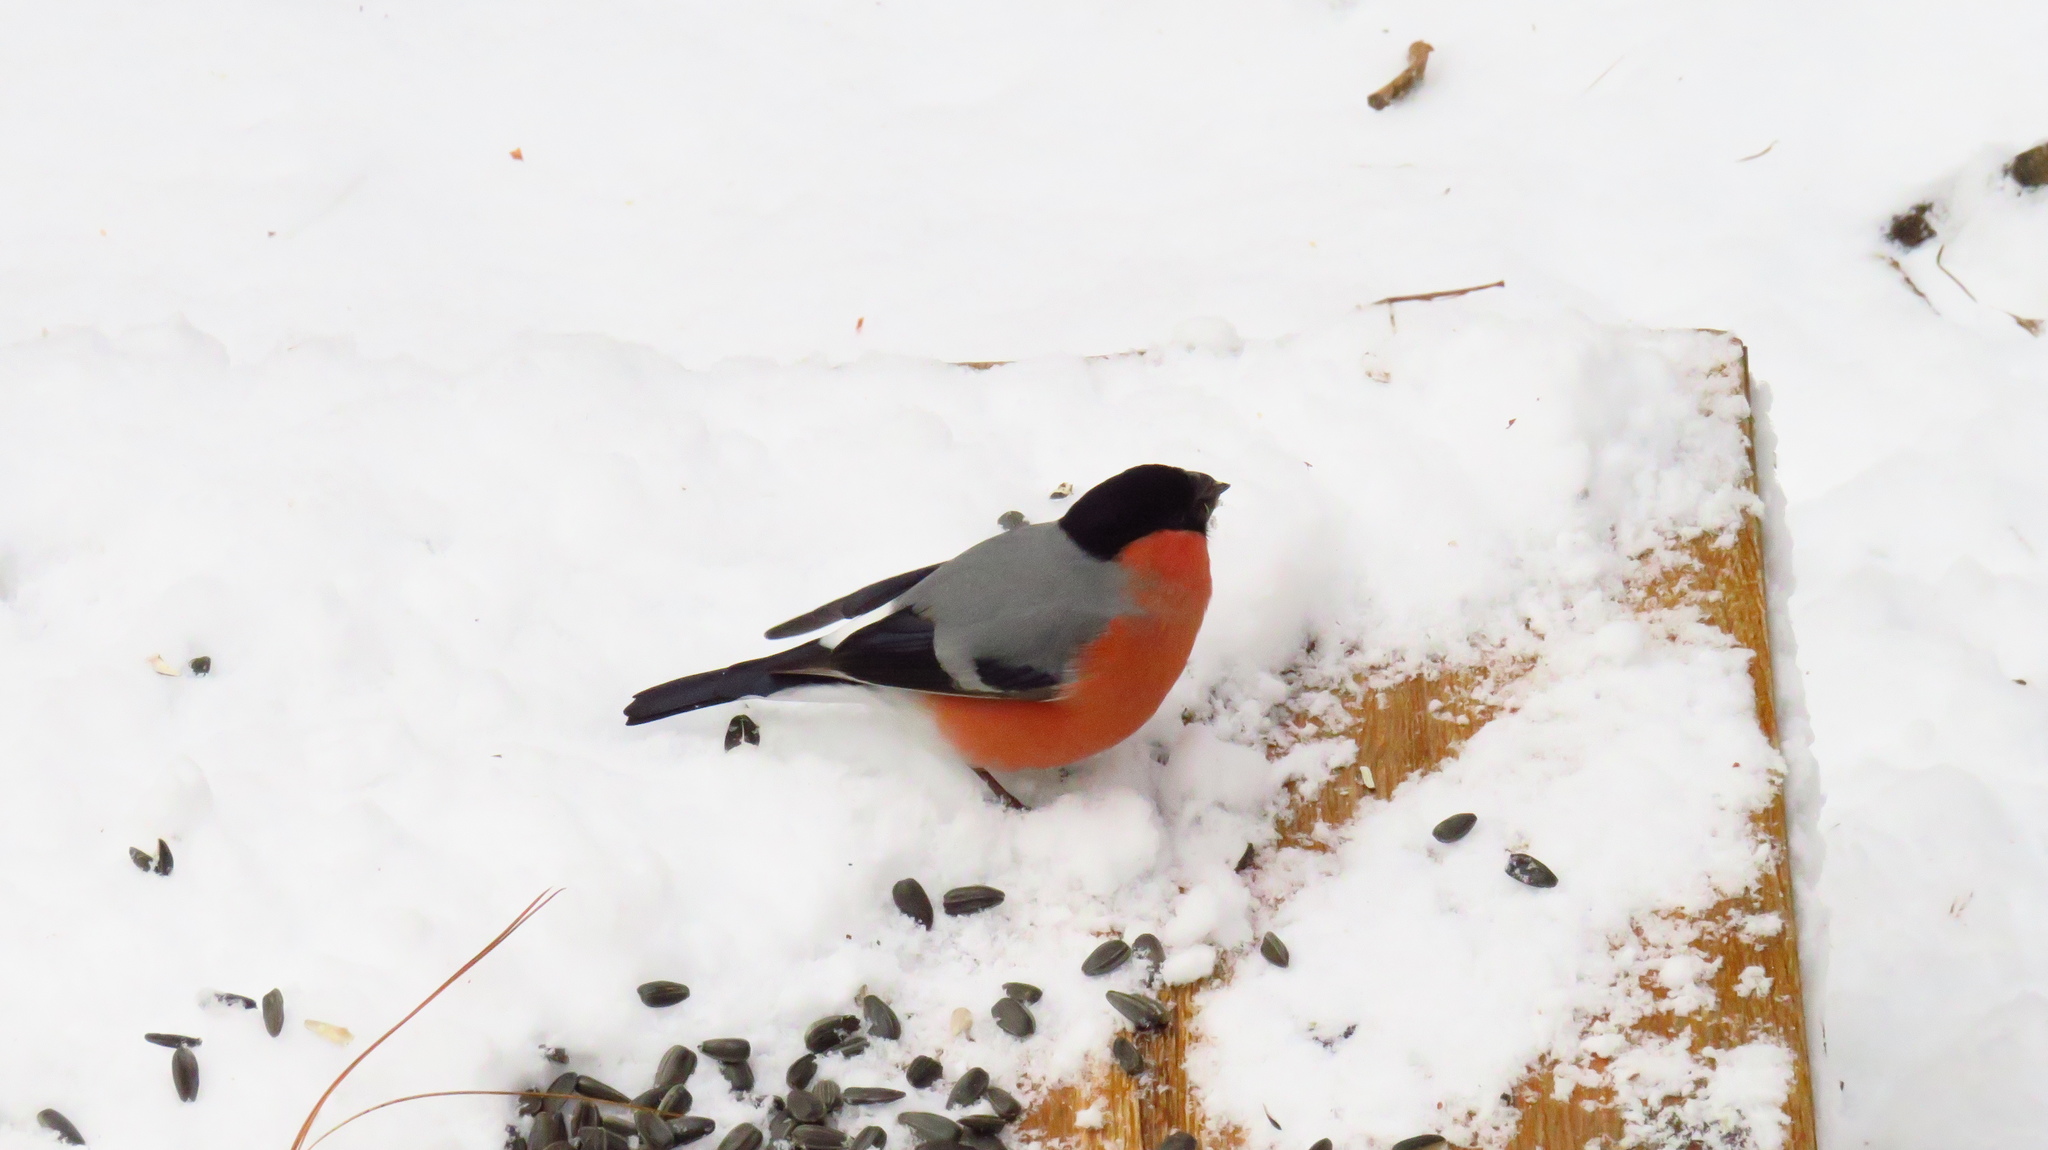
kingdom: Animalia
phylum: Chordata
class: Aves
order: Passeriformes
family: Fringillidae
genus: Pyrrhula
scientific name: Pyrrhula pyrrhula
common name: Eurasian bullfinch
